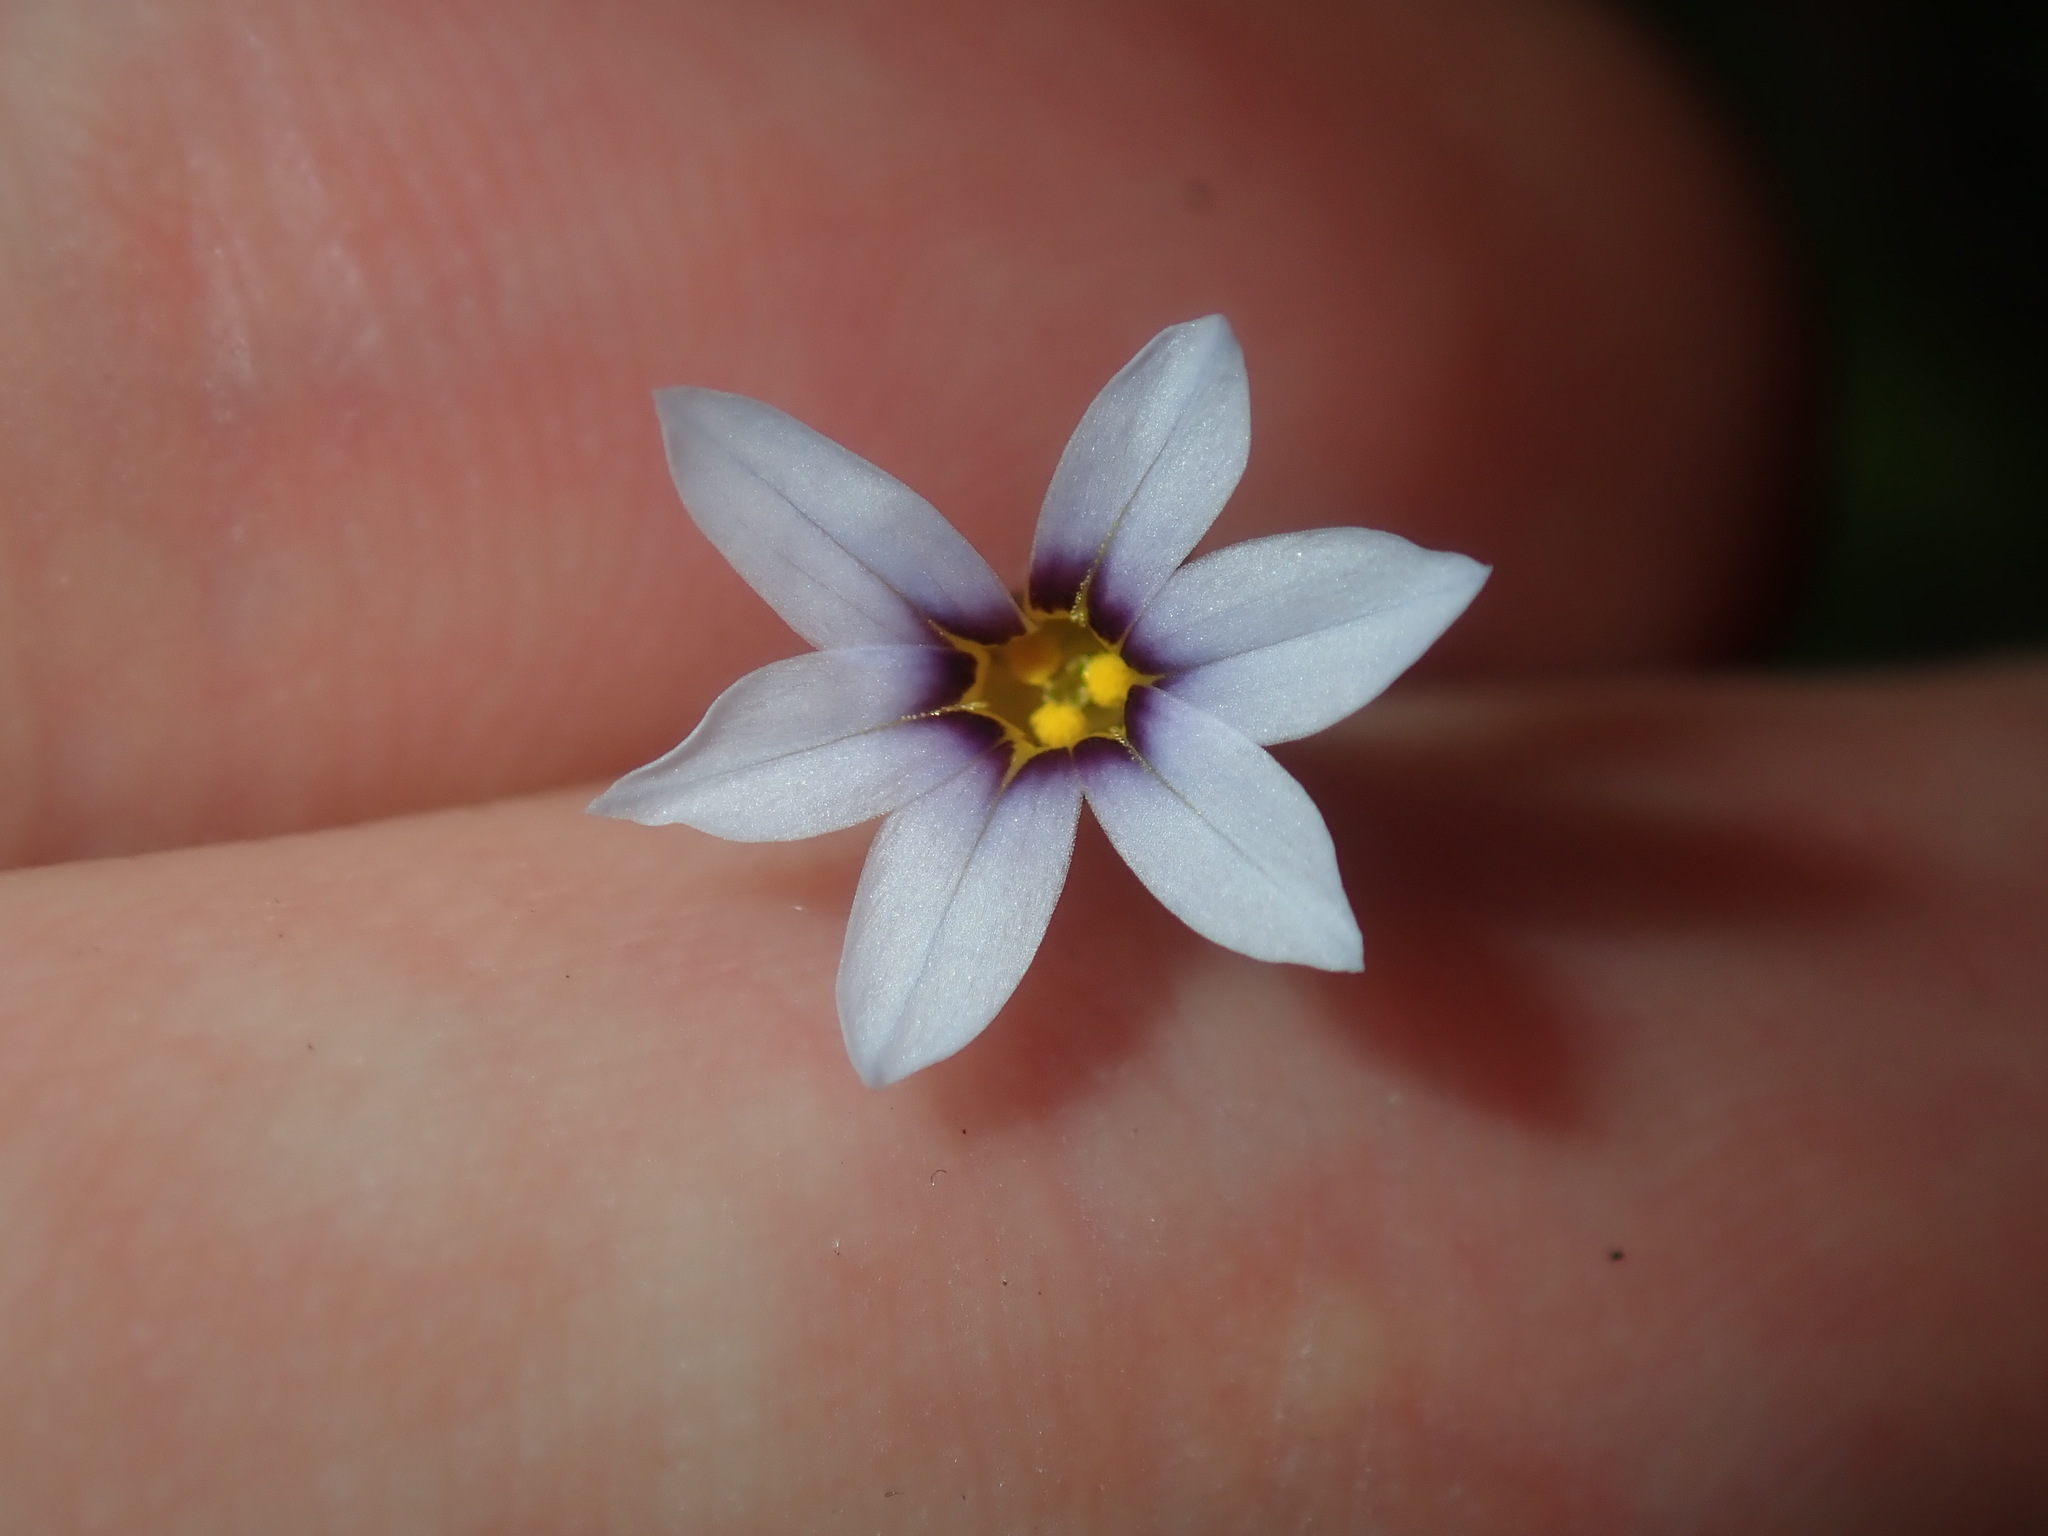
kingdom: Plantae
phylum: Tracheophyta
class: Liliopsida
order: Asparagales
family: Iridaceae
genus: Sisyrinchium
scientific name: Sisyrinchium micranthum
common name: Bermuda pigroot
